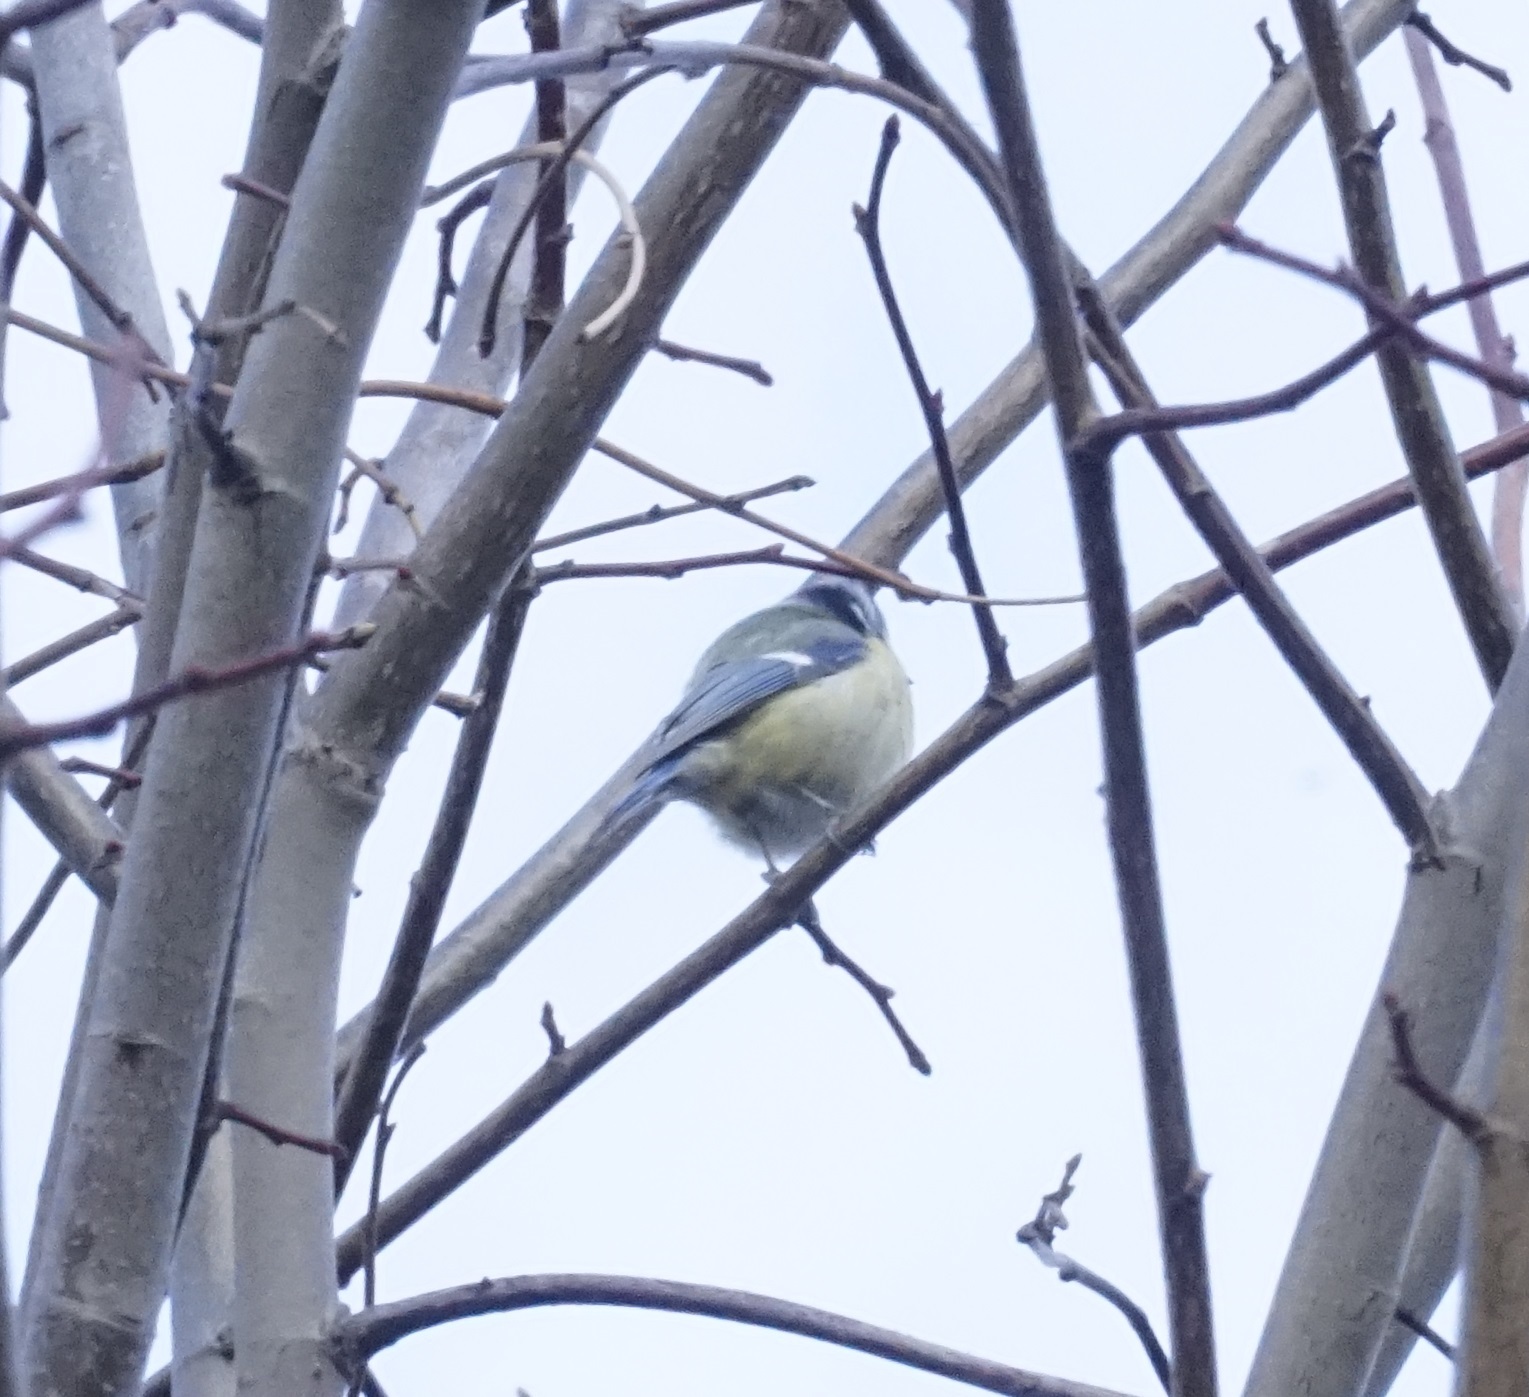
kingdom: Animalia
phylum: Chordata
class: Aves
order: Passeriformes
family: Paridae
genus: Cyanistes
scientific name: Cyanistes caeruleus
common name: Eurasian blue tit
